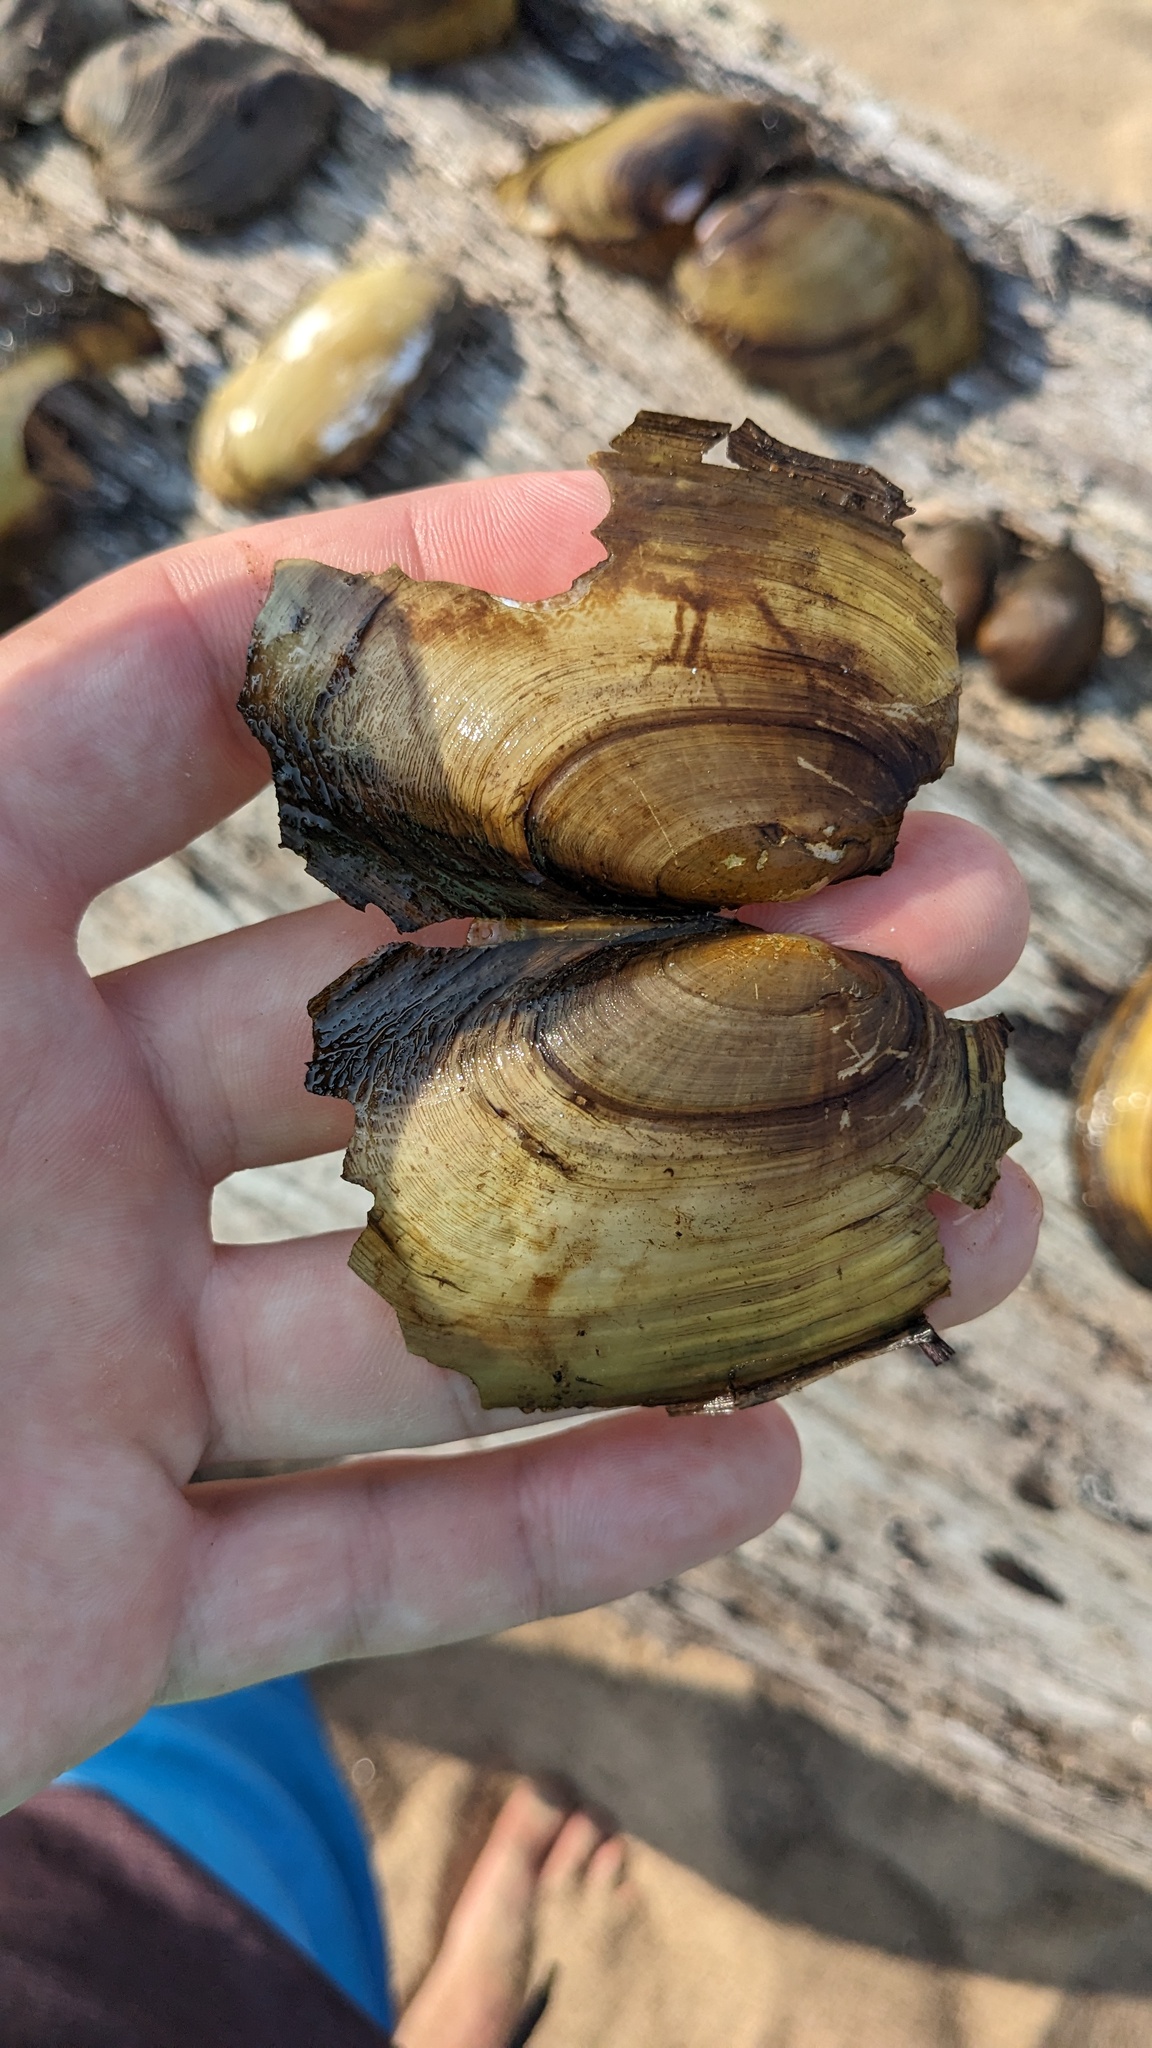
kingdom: Animalia
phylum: Mollusca
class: Bivalvia
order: Unionida
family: Unionidae
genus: Potamilus
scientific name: Potamilus fragilis
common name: Fragile papershell
